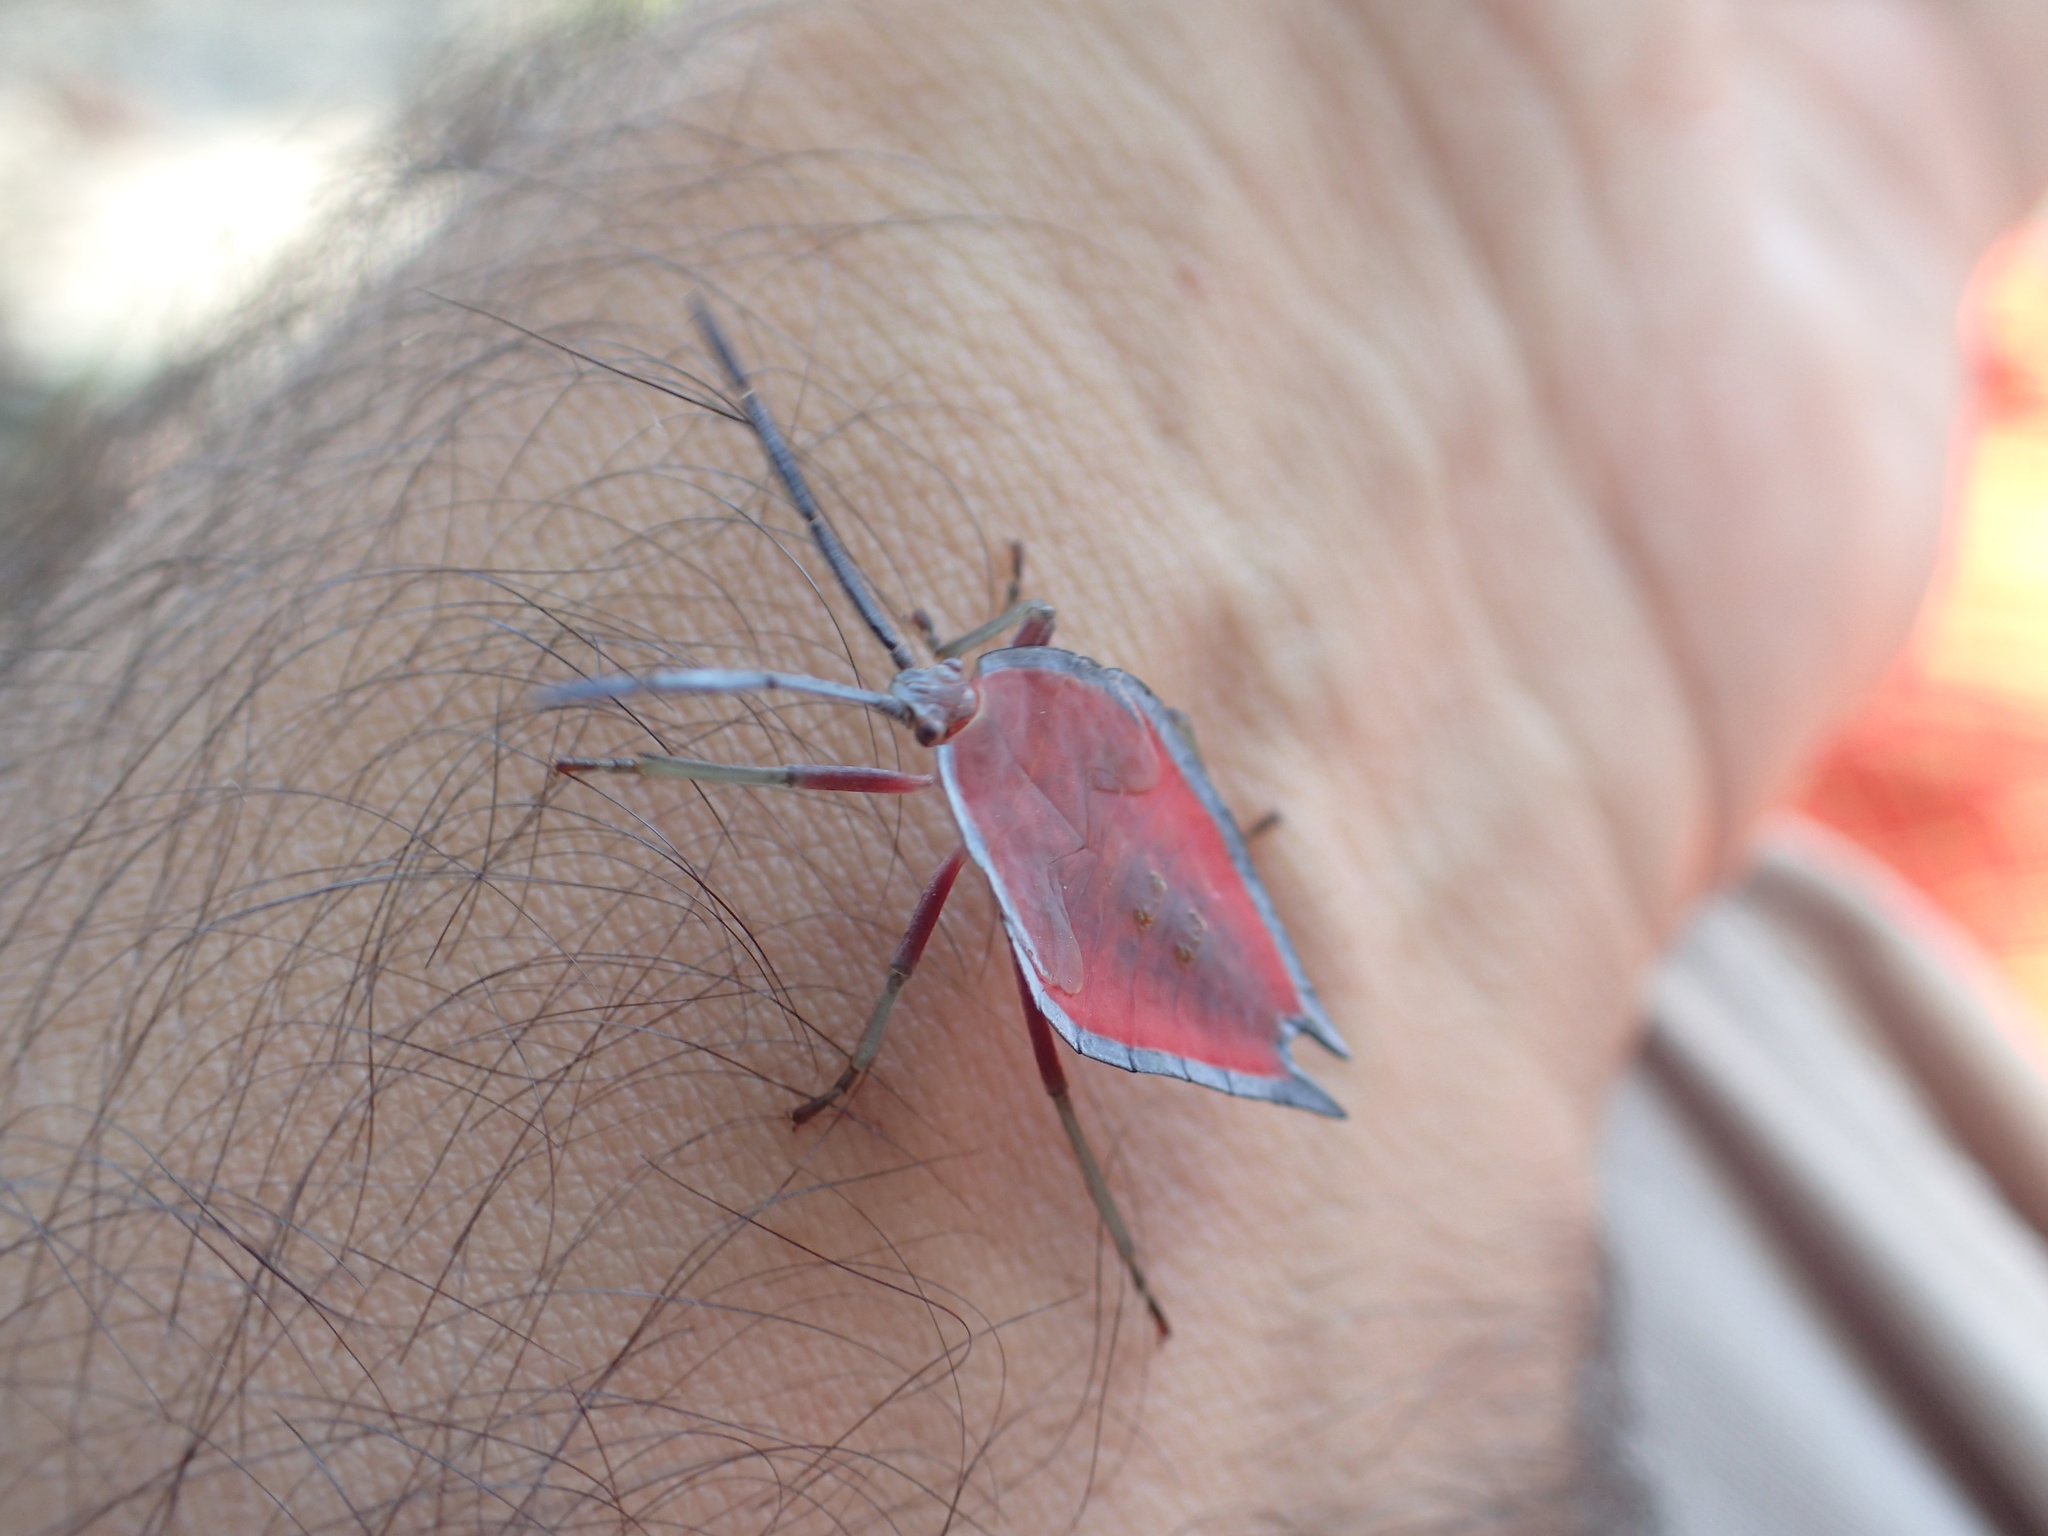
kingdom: Animalia
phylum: Arthropoda
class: Insecta
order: Hemiptera
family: Tessaratomidae
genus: Lyramorpha
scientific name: Lyramorpha rosea
